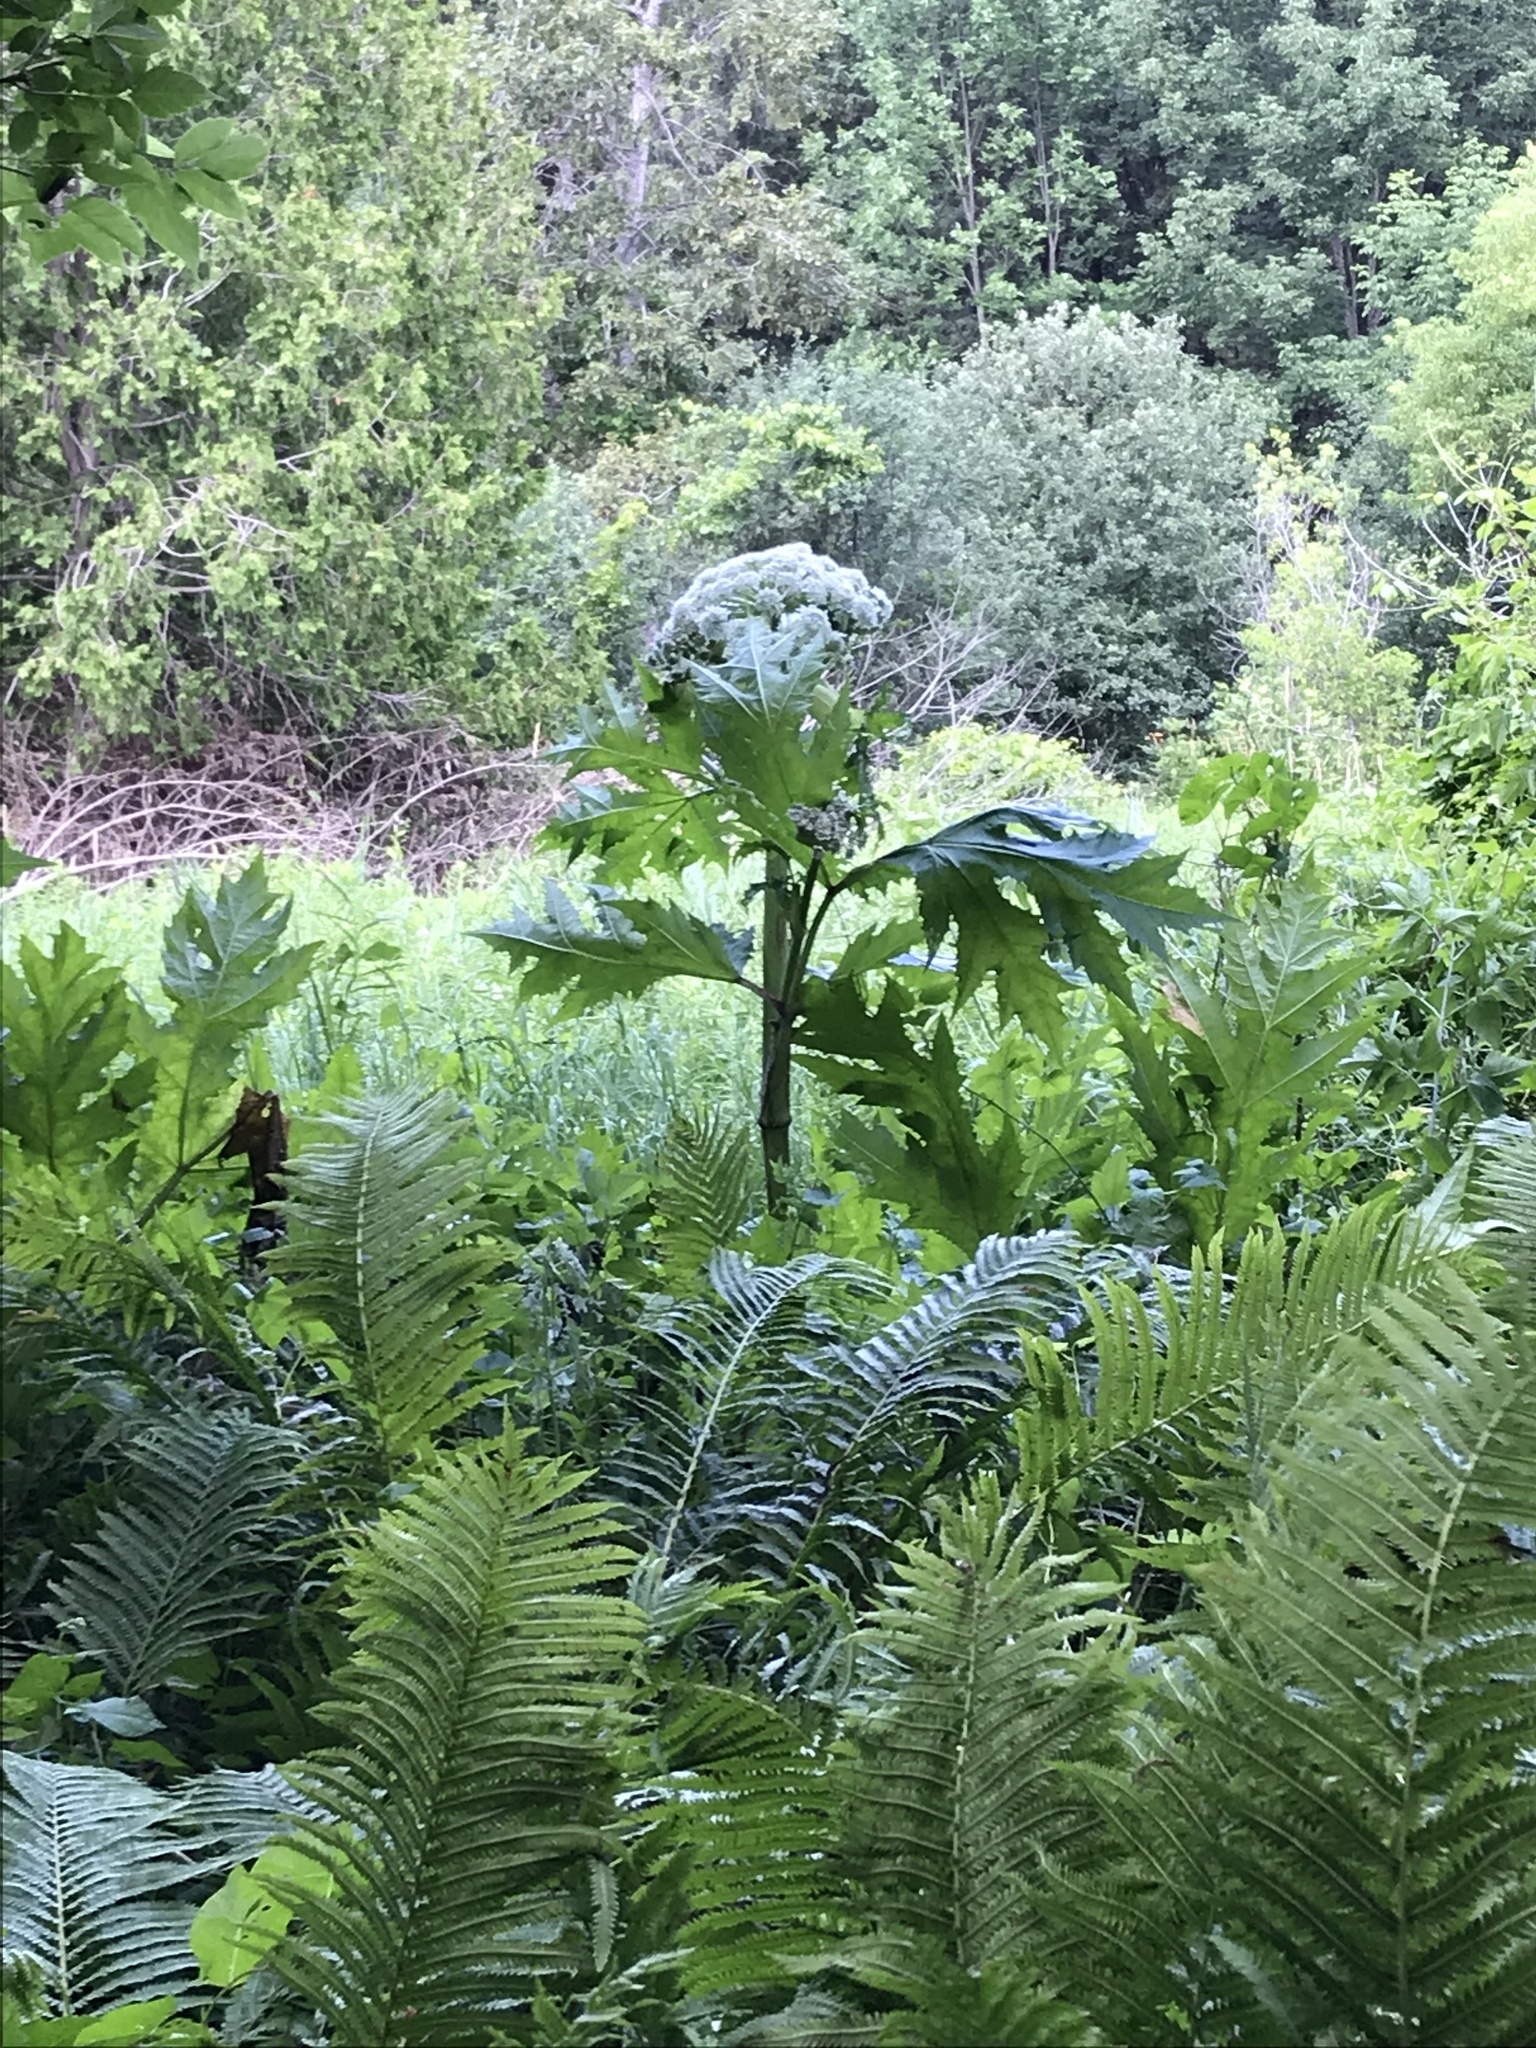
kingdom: Plantae
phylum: Tracheophyta
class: Magnoliopsida
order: Apiales
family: Apiaceae
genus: Heracleum
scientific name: Heracleum mantegazzianum
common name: Giant hogweed
